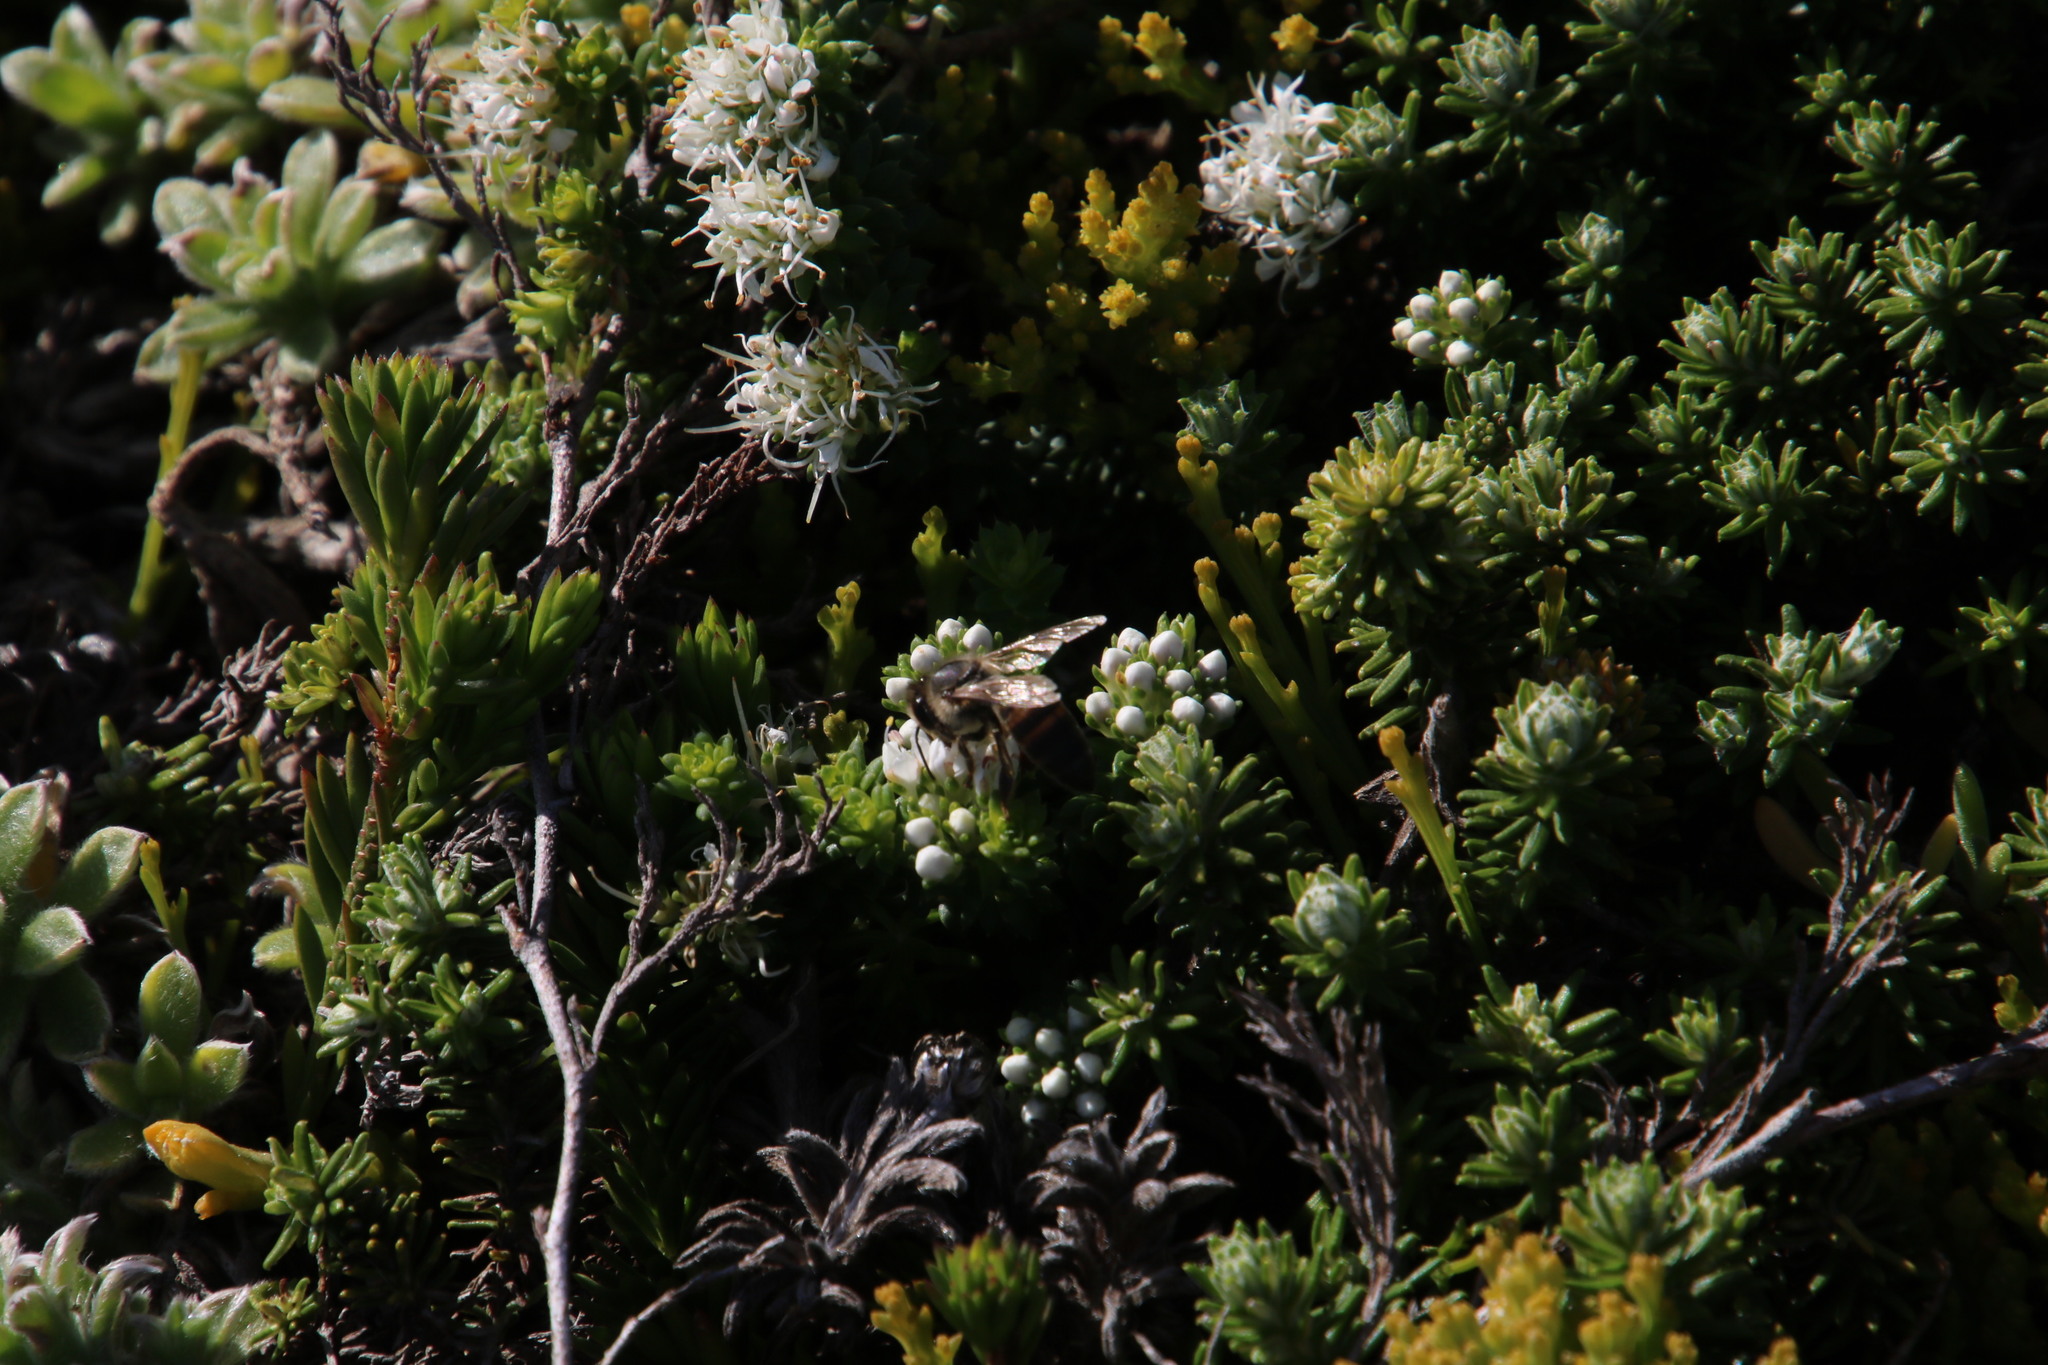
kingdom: Animalia
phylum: Arthropoda
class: Insecta
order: Hymenoptera
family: Apidae
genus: Apis
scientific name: Apis mellifera
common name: Honey bee
